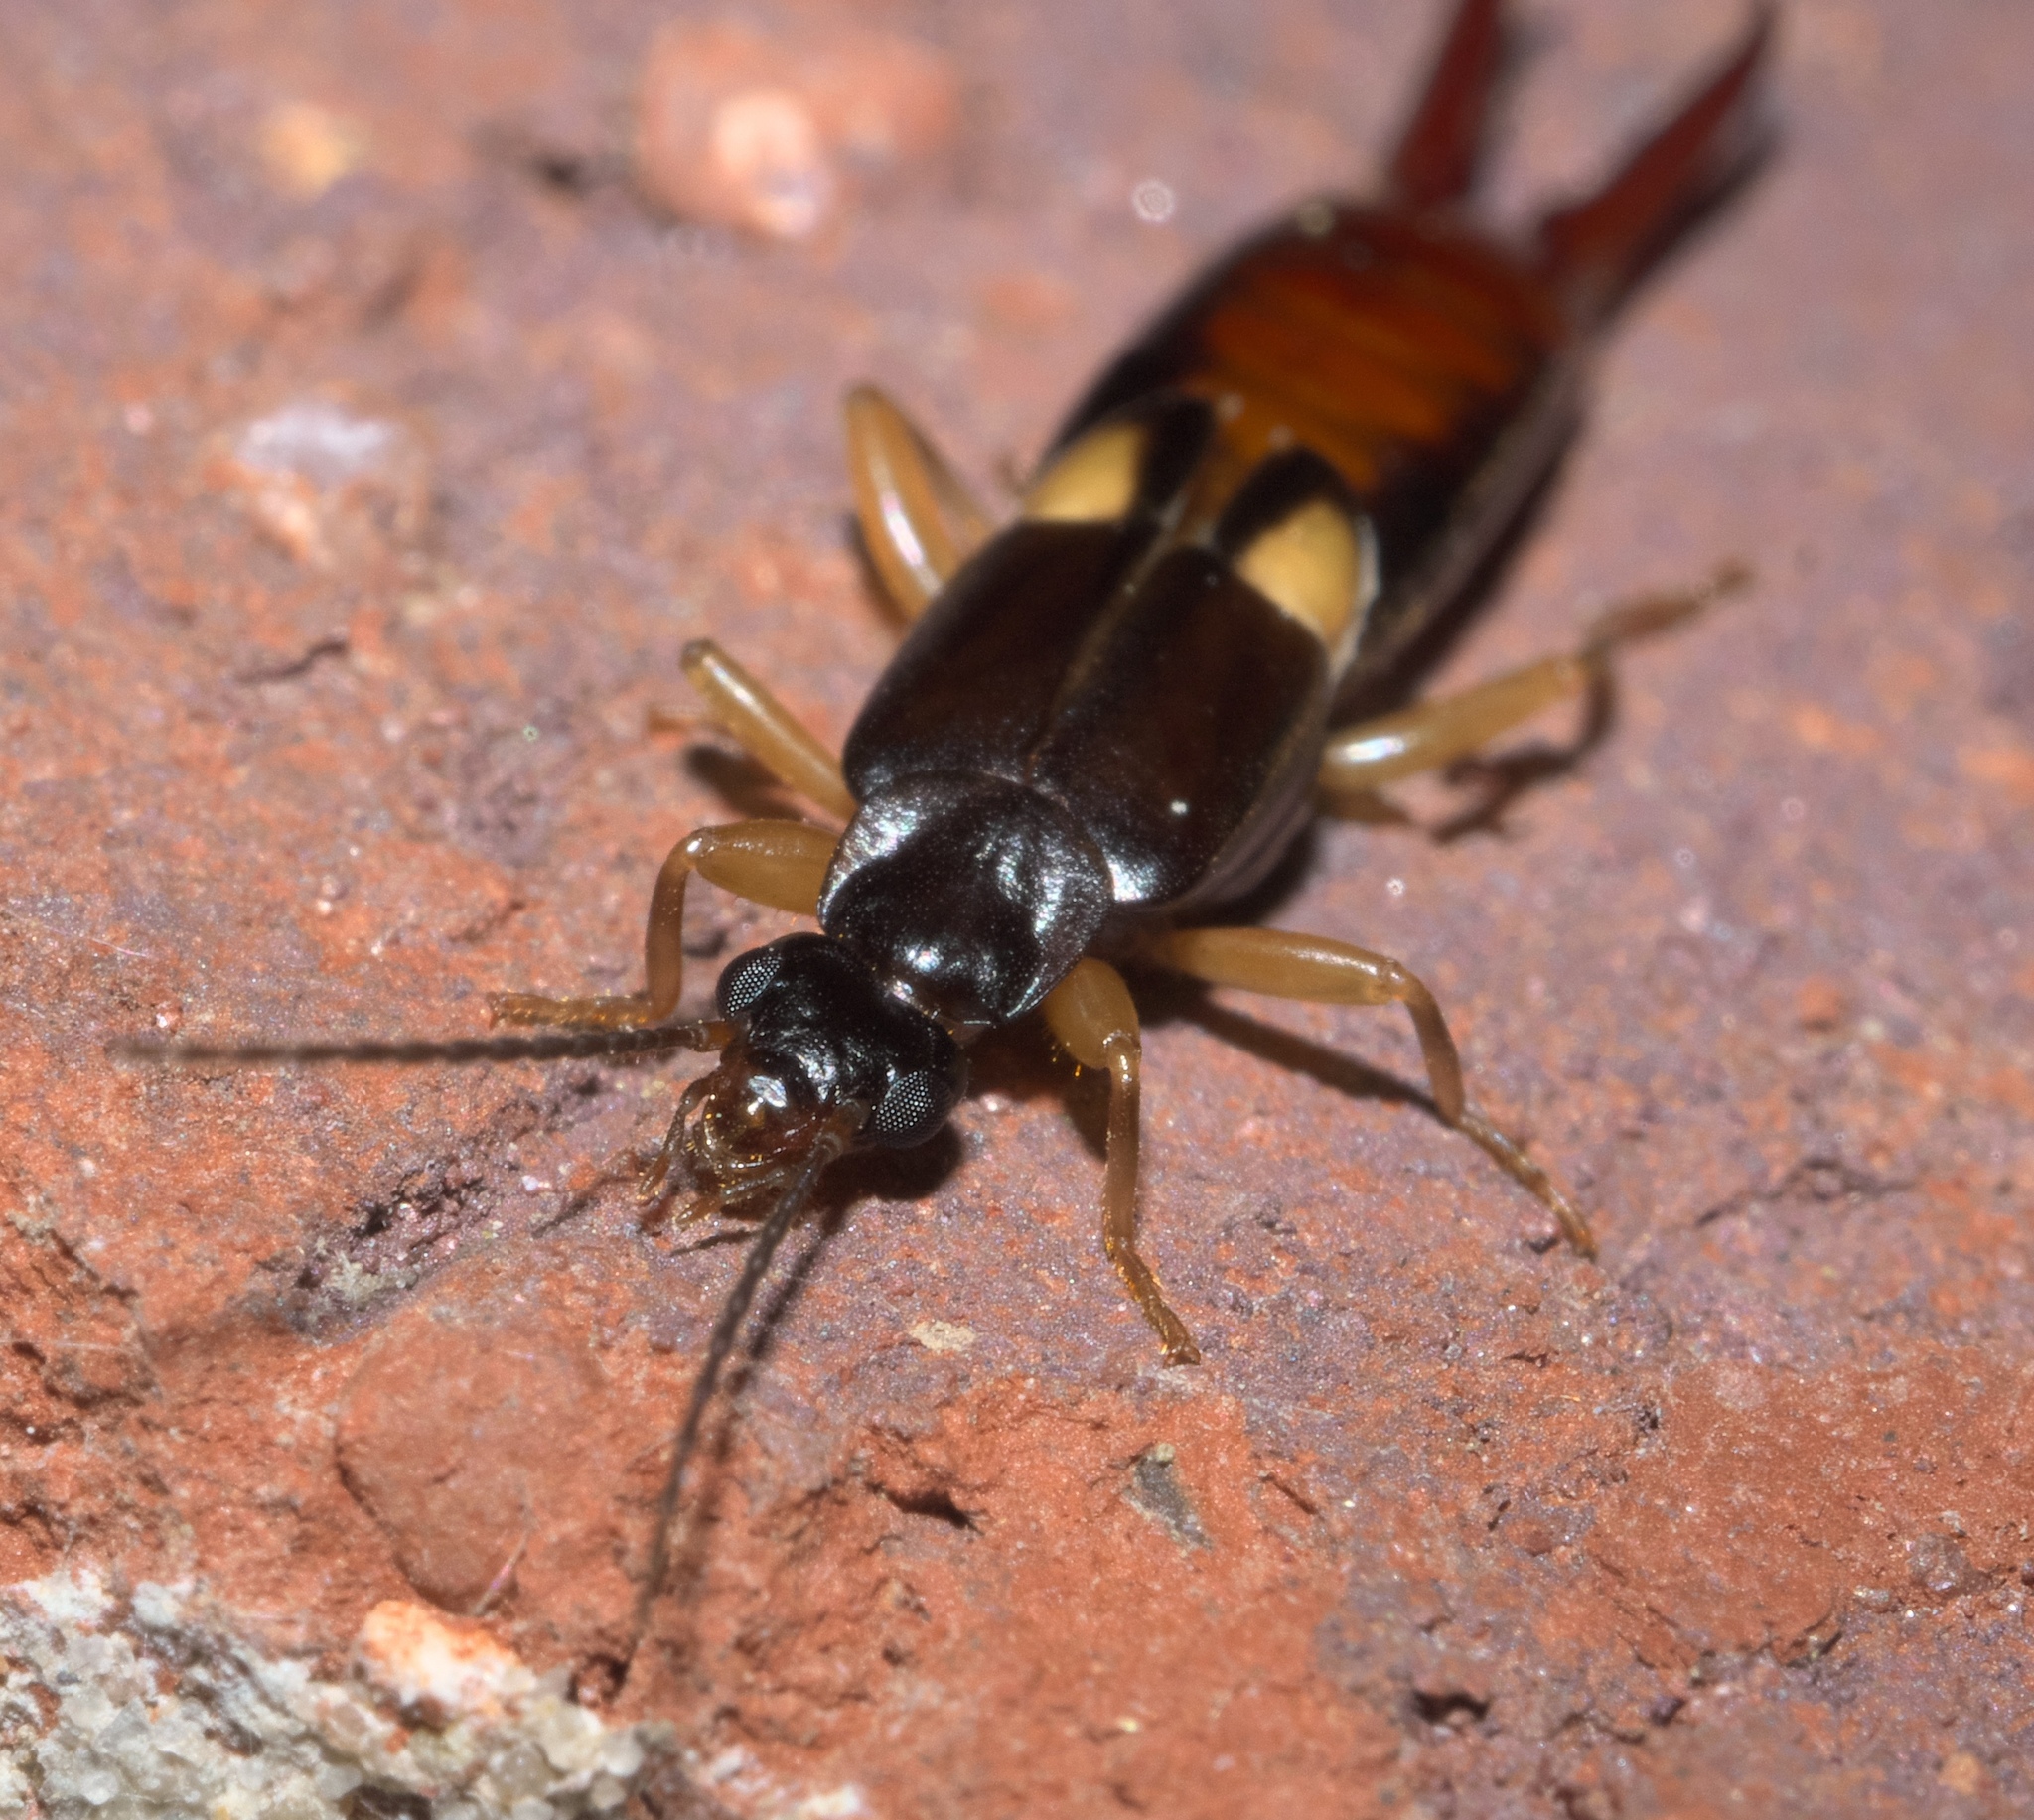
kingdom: Animalia
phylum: Arthropoda
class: Insecta
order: Dermaptera
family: Spongiphoridae
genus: Vostox
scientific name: Vostox brunneipennis
